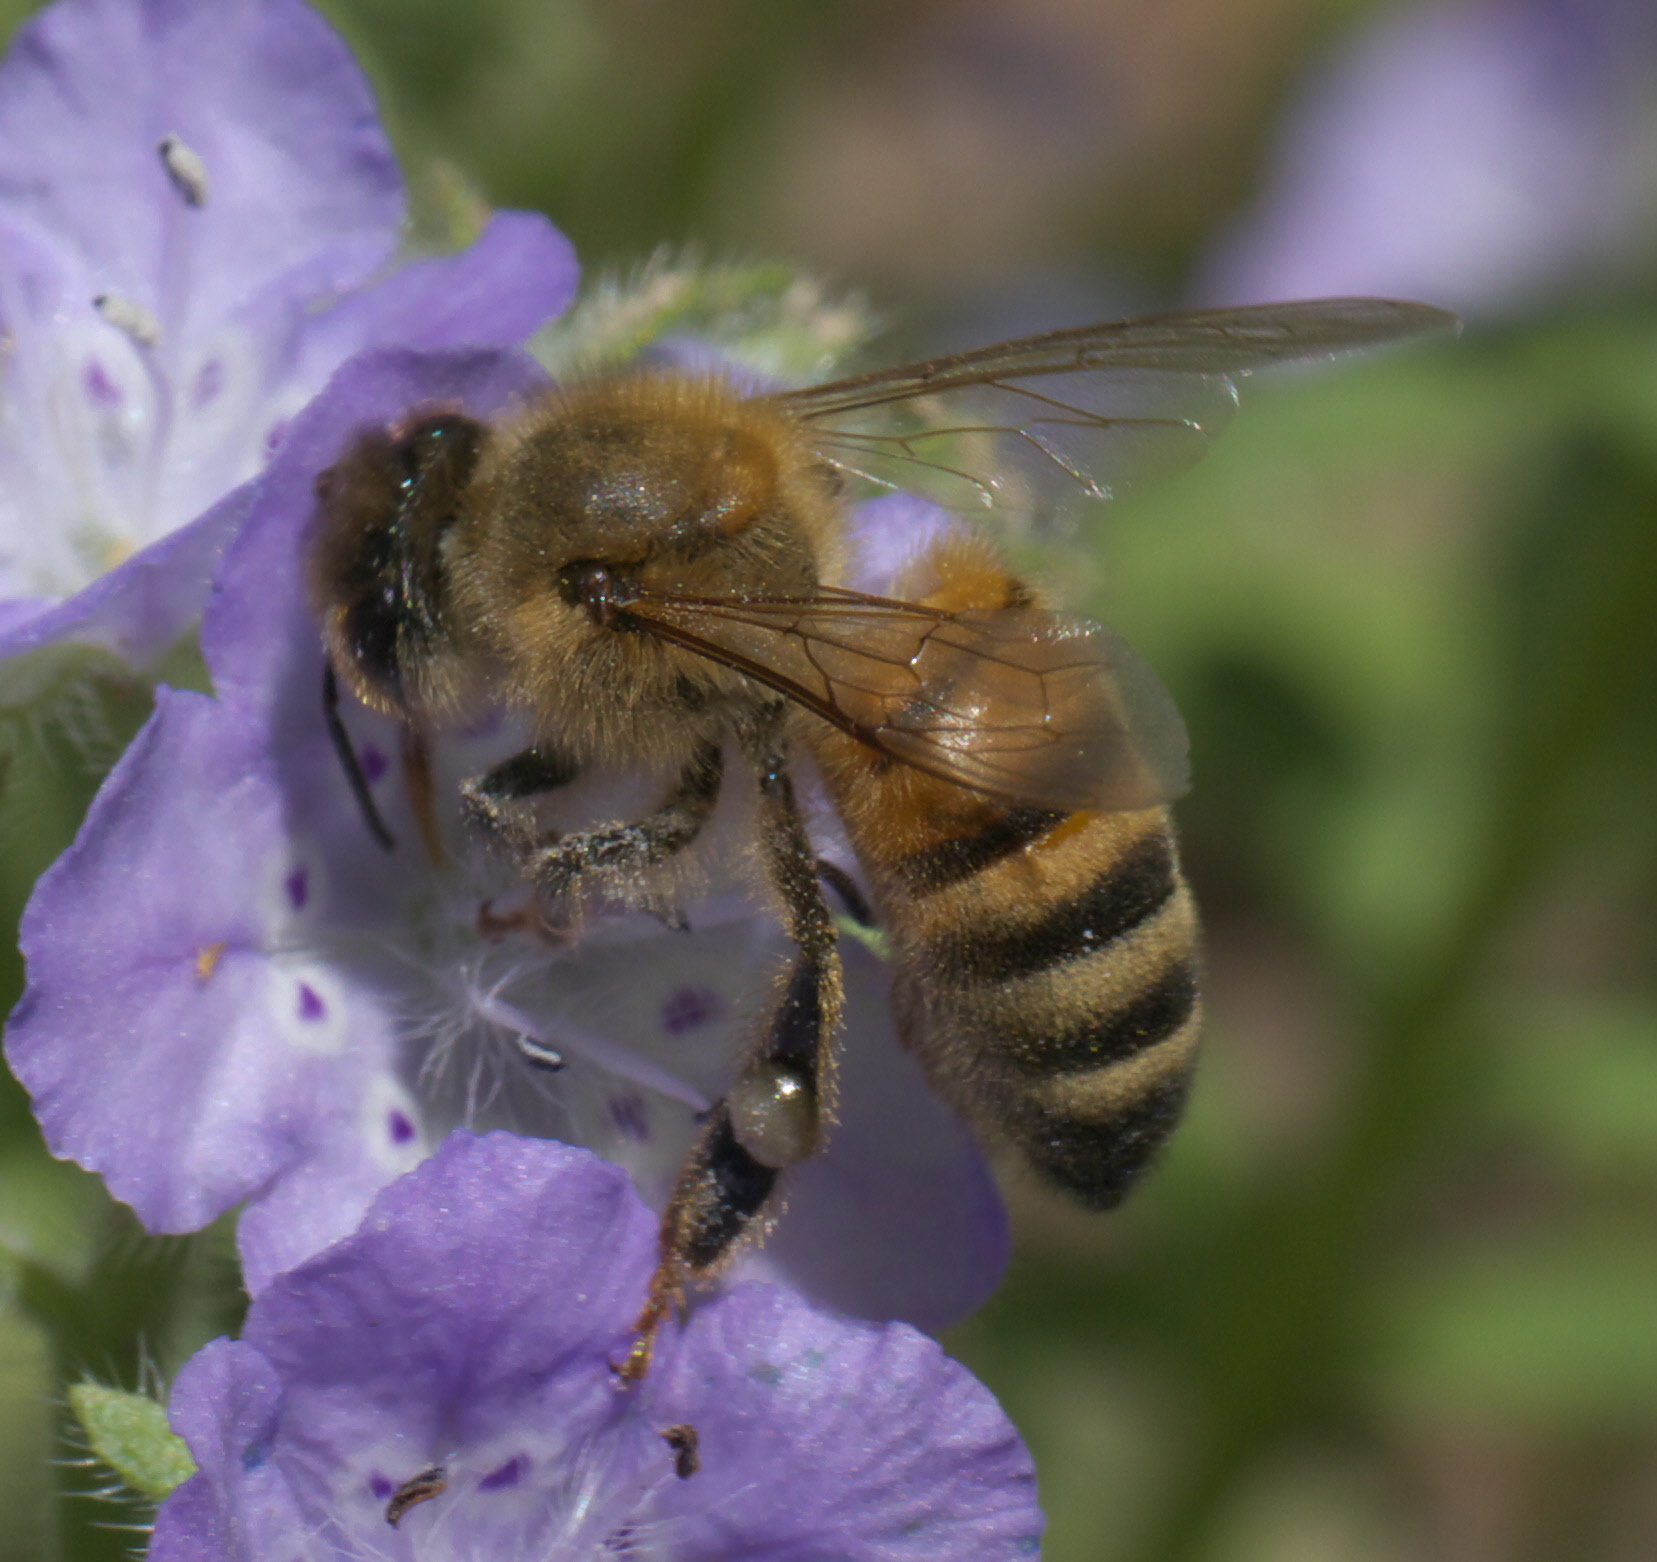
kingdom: Animalia
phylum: Arthropoda
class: Insecta
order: Hymenoptera
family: Apidae
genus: Apis
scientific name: Apis mellifera
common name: Honey bee
